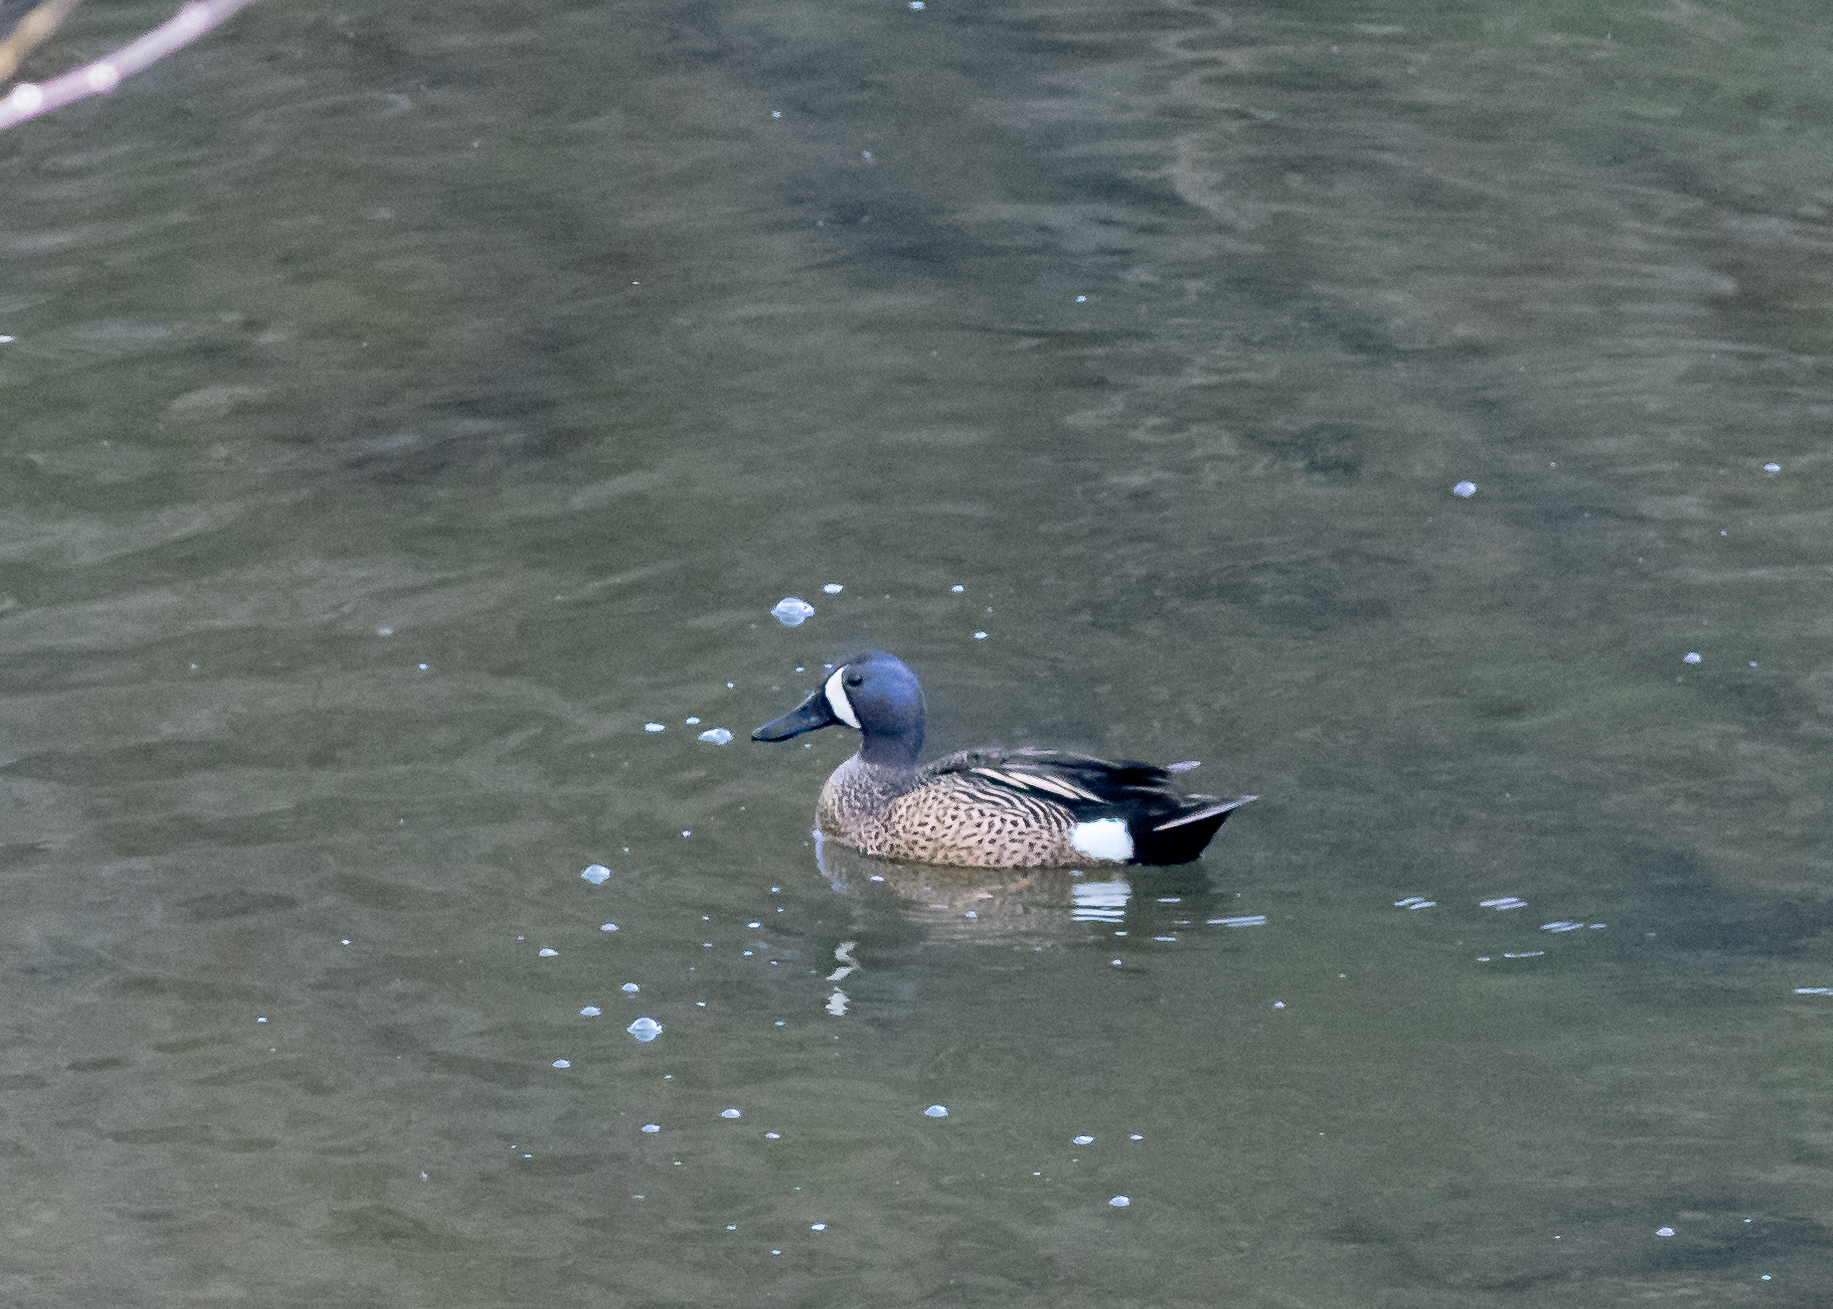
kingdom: Animalia
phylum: Chordata
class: Aves
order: Anseriformes
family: Anatidae
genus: Spatula
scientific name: Spatula discors
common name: Blue-winged teal
